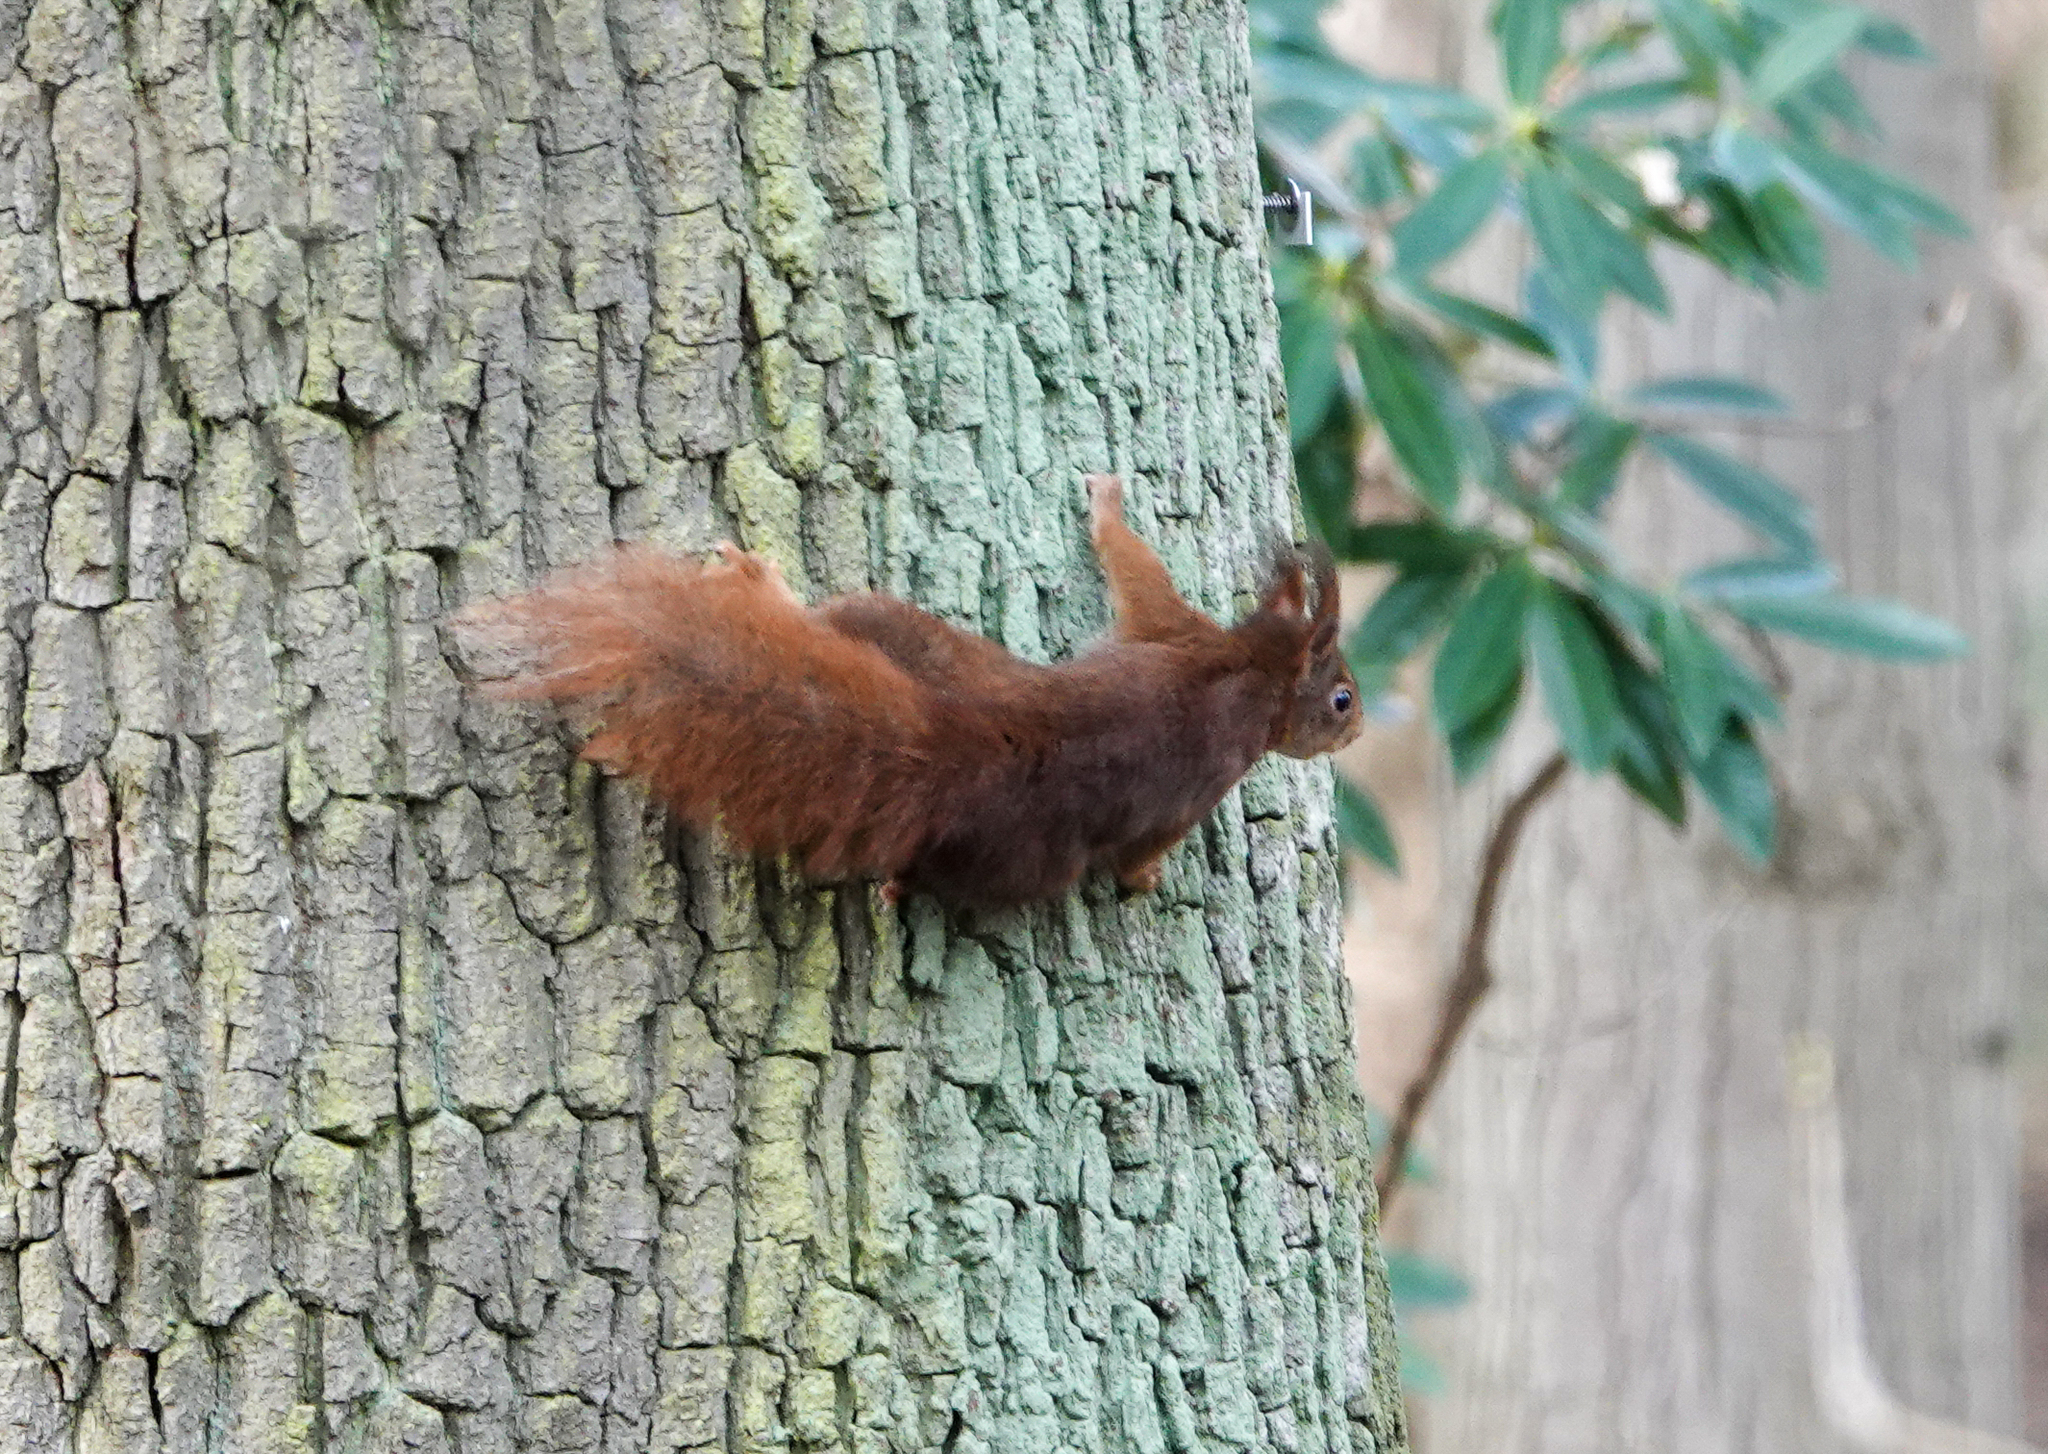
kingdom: Animalia
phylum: Chordata
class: Mammalia
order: Rodentia
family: Sciuridae
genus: Sciurus
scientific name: Sciurus vulgaris
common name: Eurasian red squirrel
